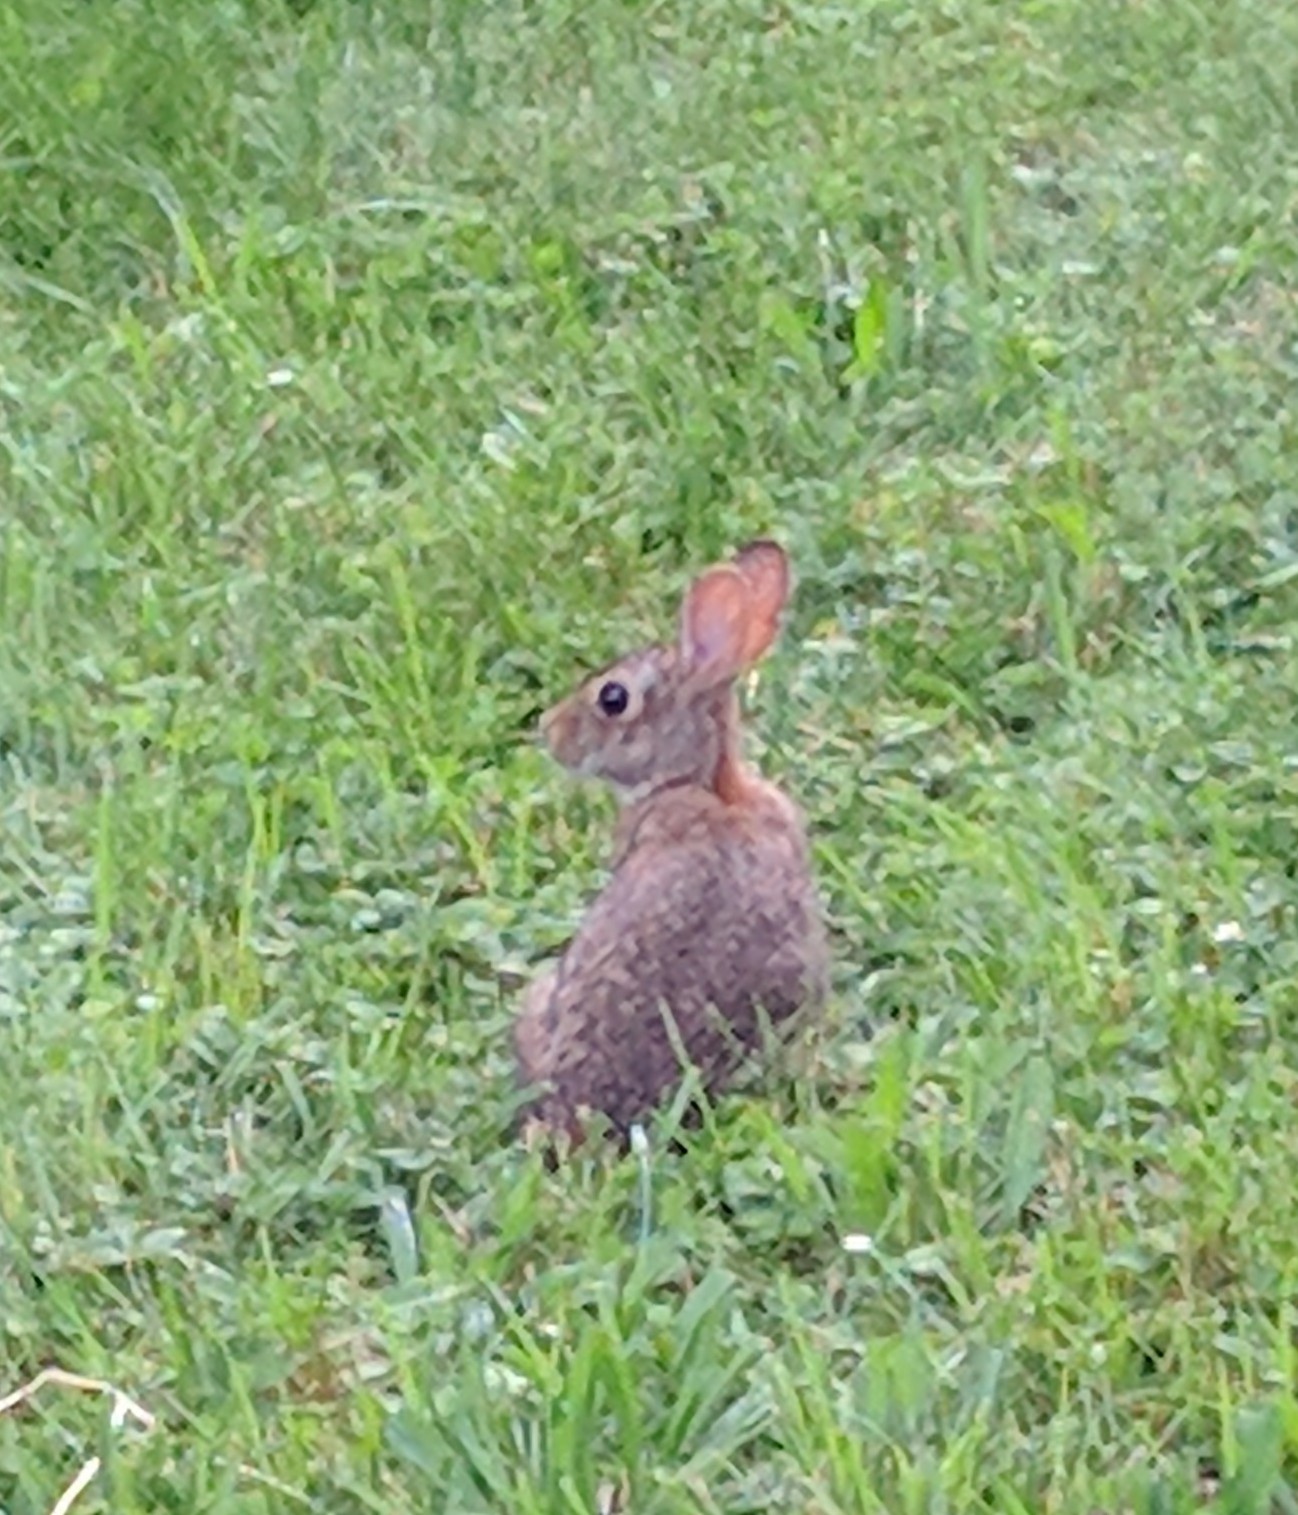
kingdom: Animalia
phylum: Chordata
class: Mammalia
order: Lagomorpha
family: Leporidae
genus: Sylvilagus
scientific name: Sylvilagus floridanus
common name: Eastern cottontail
